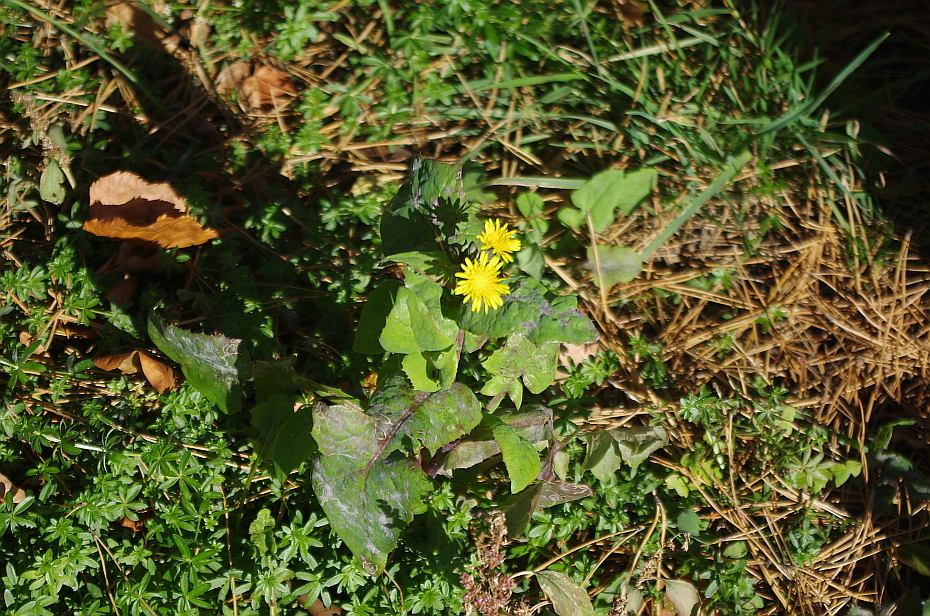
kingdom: Plantae
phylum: Tracheophyta
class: Magnoliopsida
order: Asterales
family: Asteraceae
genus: Sonchus
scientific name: Sonchus oleraceus
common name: Common sowthistle
